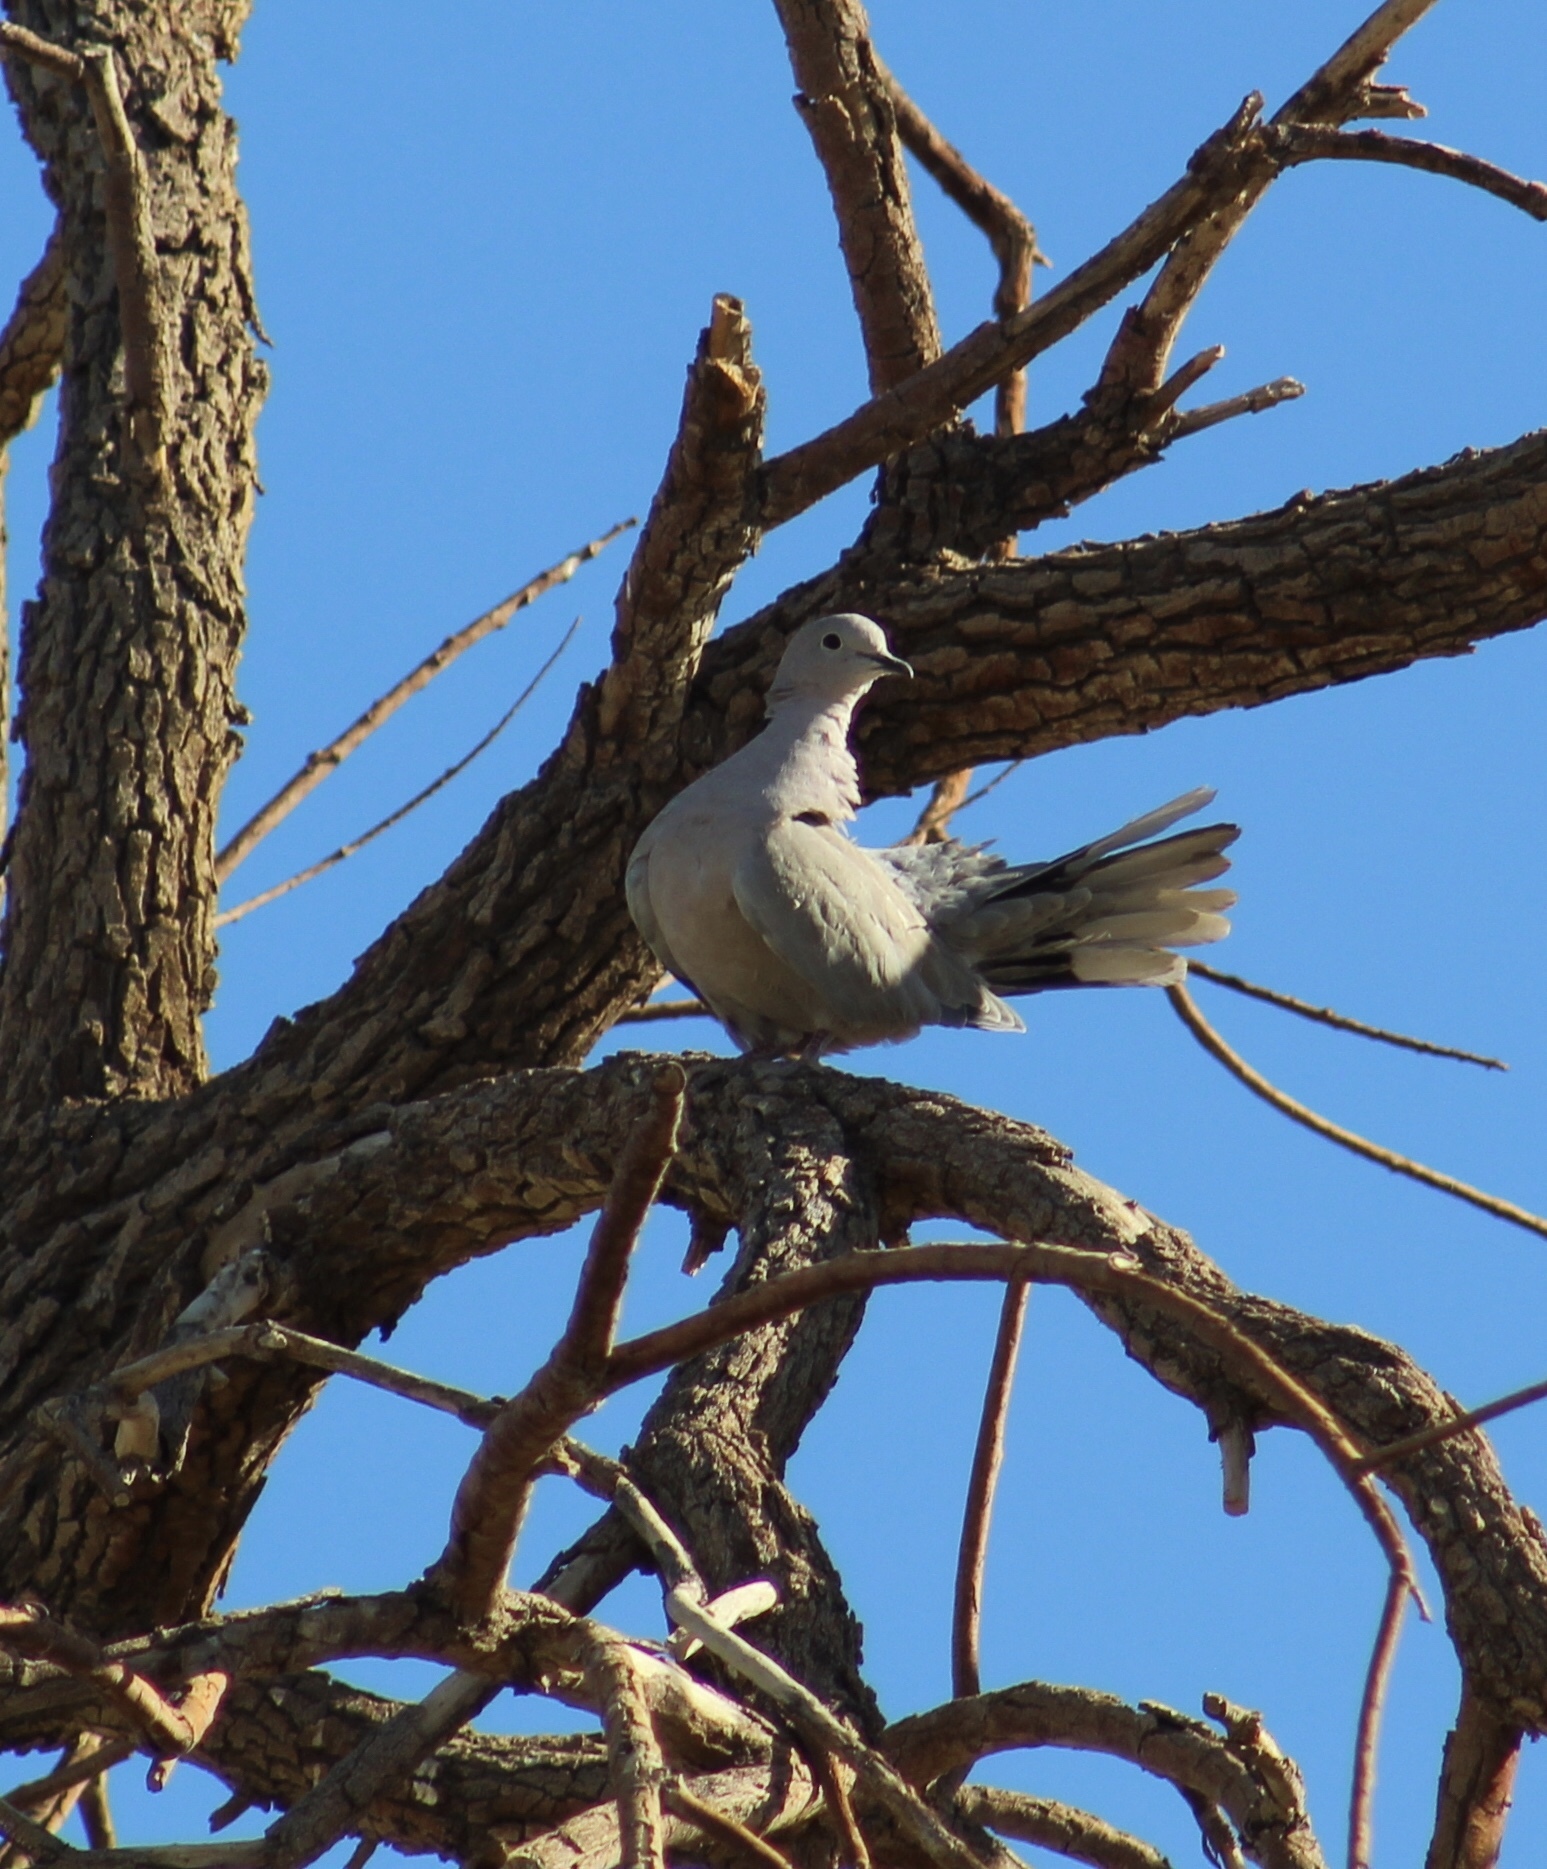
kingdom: Animalia
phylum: Chordata
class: Aves
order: Columbiformes
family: Columbidae
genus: Streptopelia
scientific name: Streptopelia decaocto
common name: Eurasian collared dove
